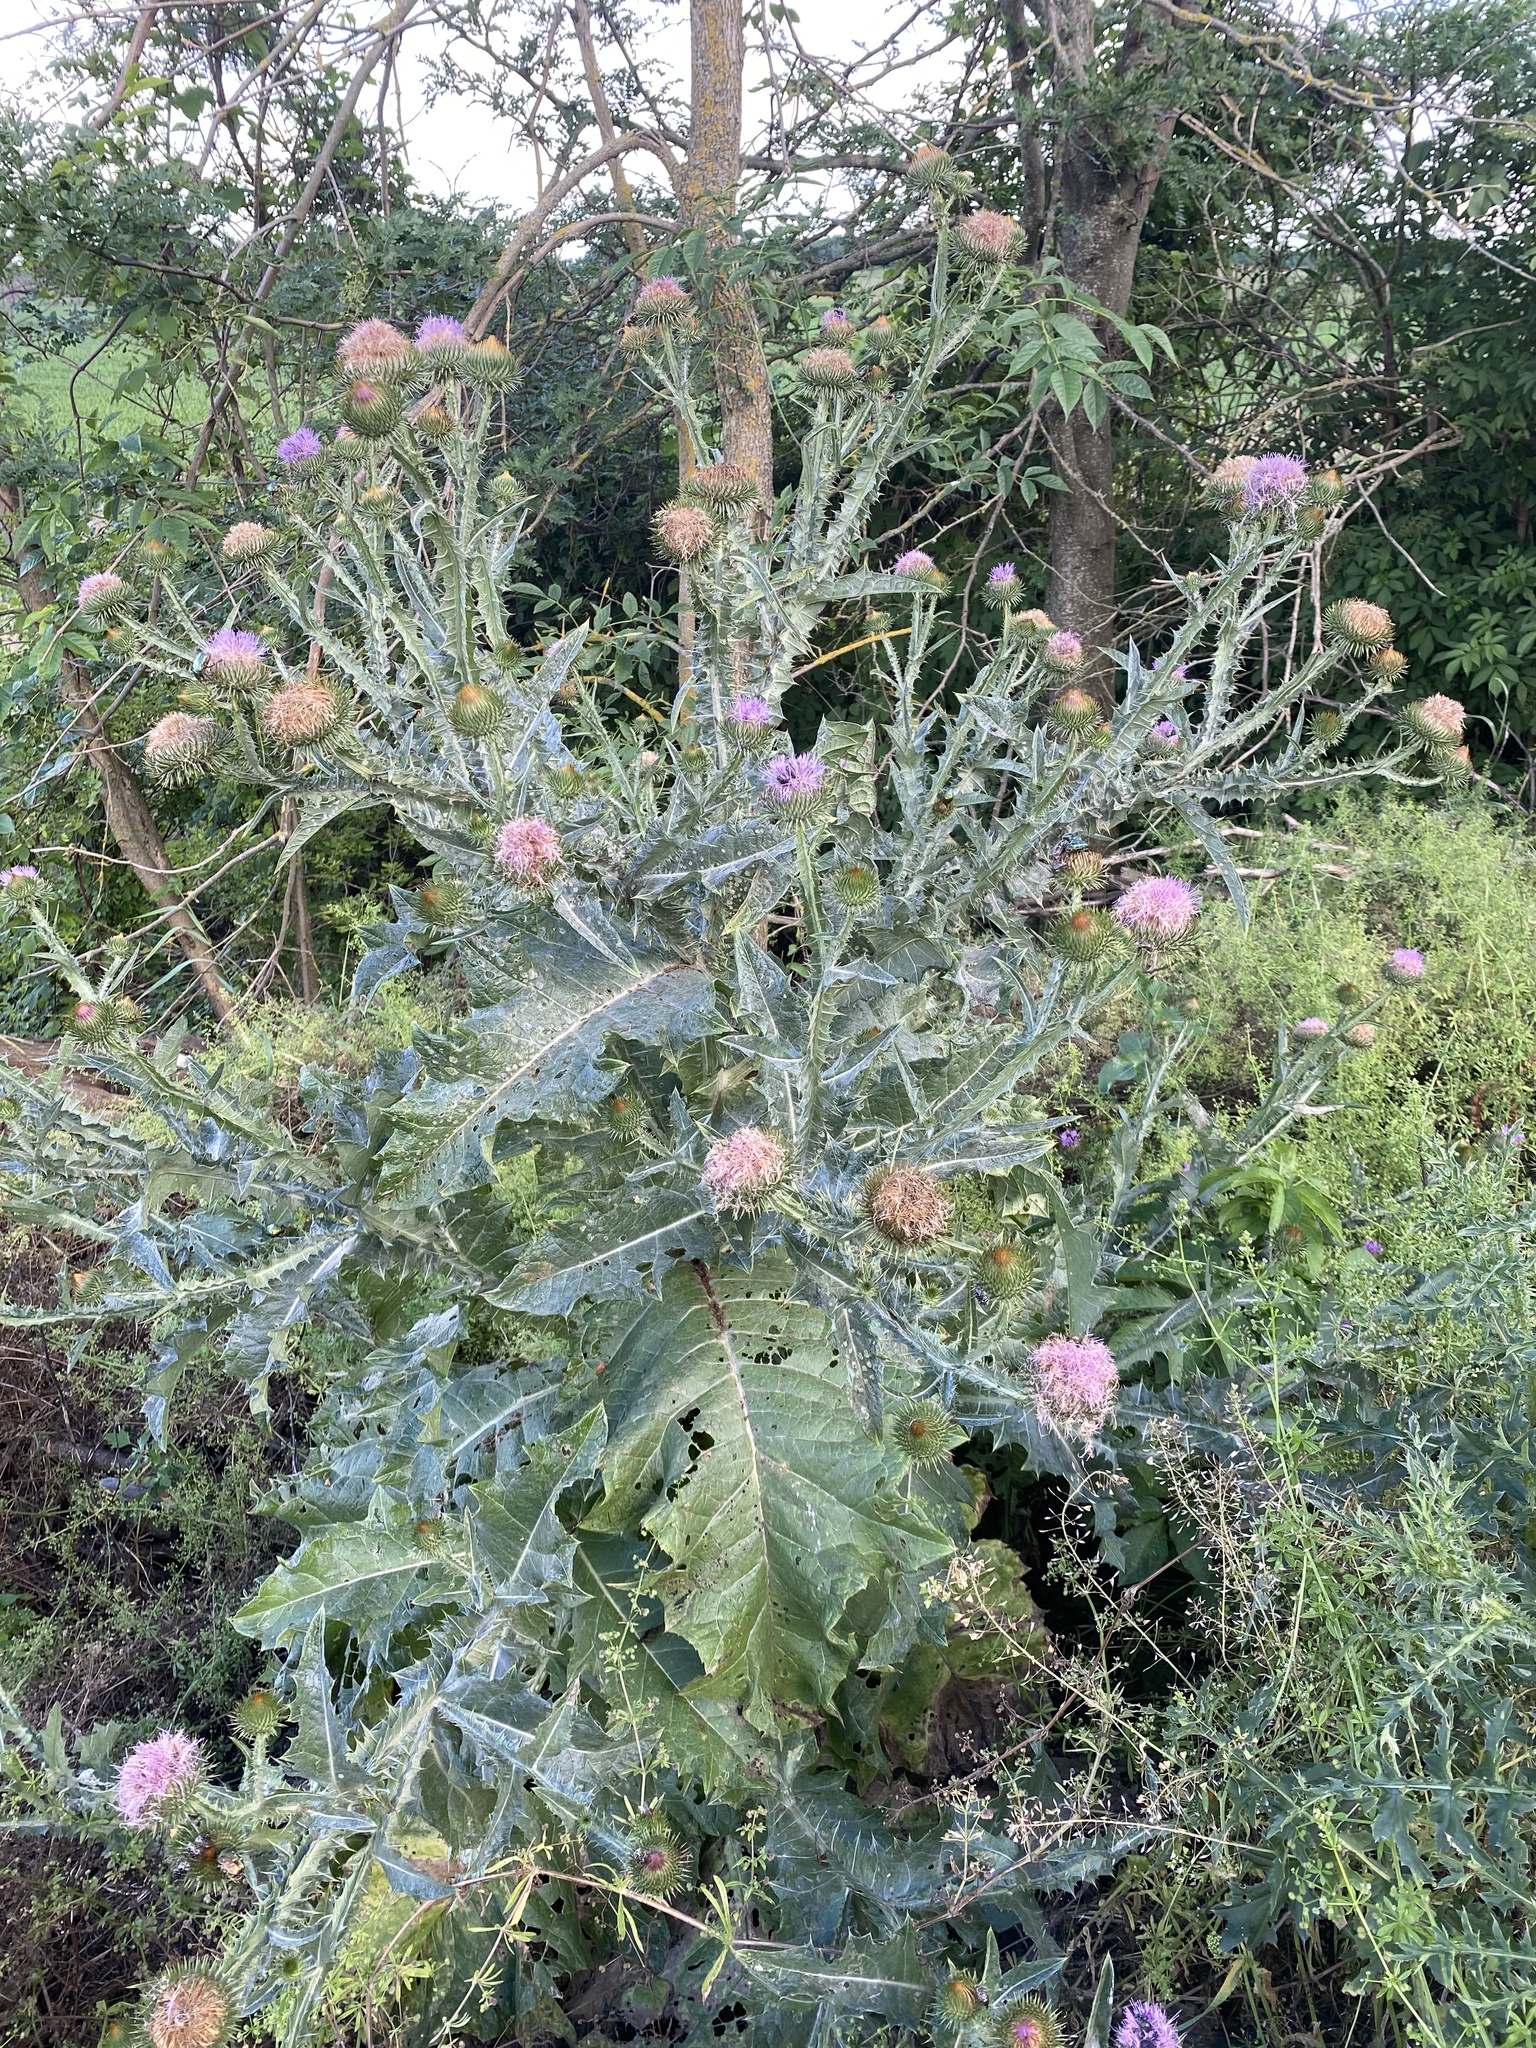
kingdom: Plantae
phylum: Tracheophyta
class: Magnoliopsida
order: Asterales
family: Asteraceae
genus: Onopordum
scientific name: Onopordum acanthium
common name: Scotch thistle
